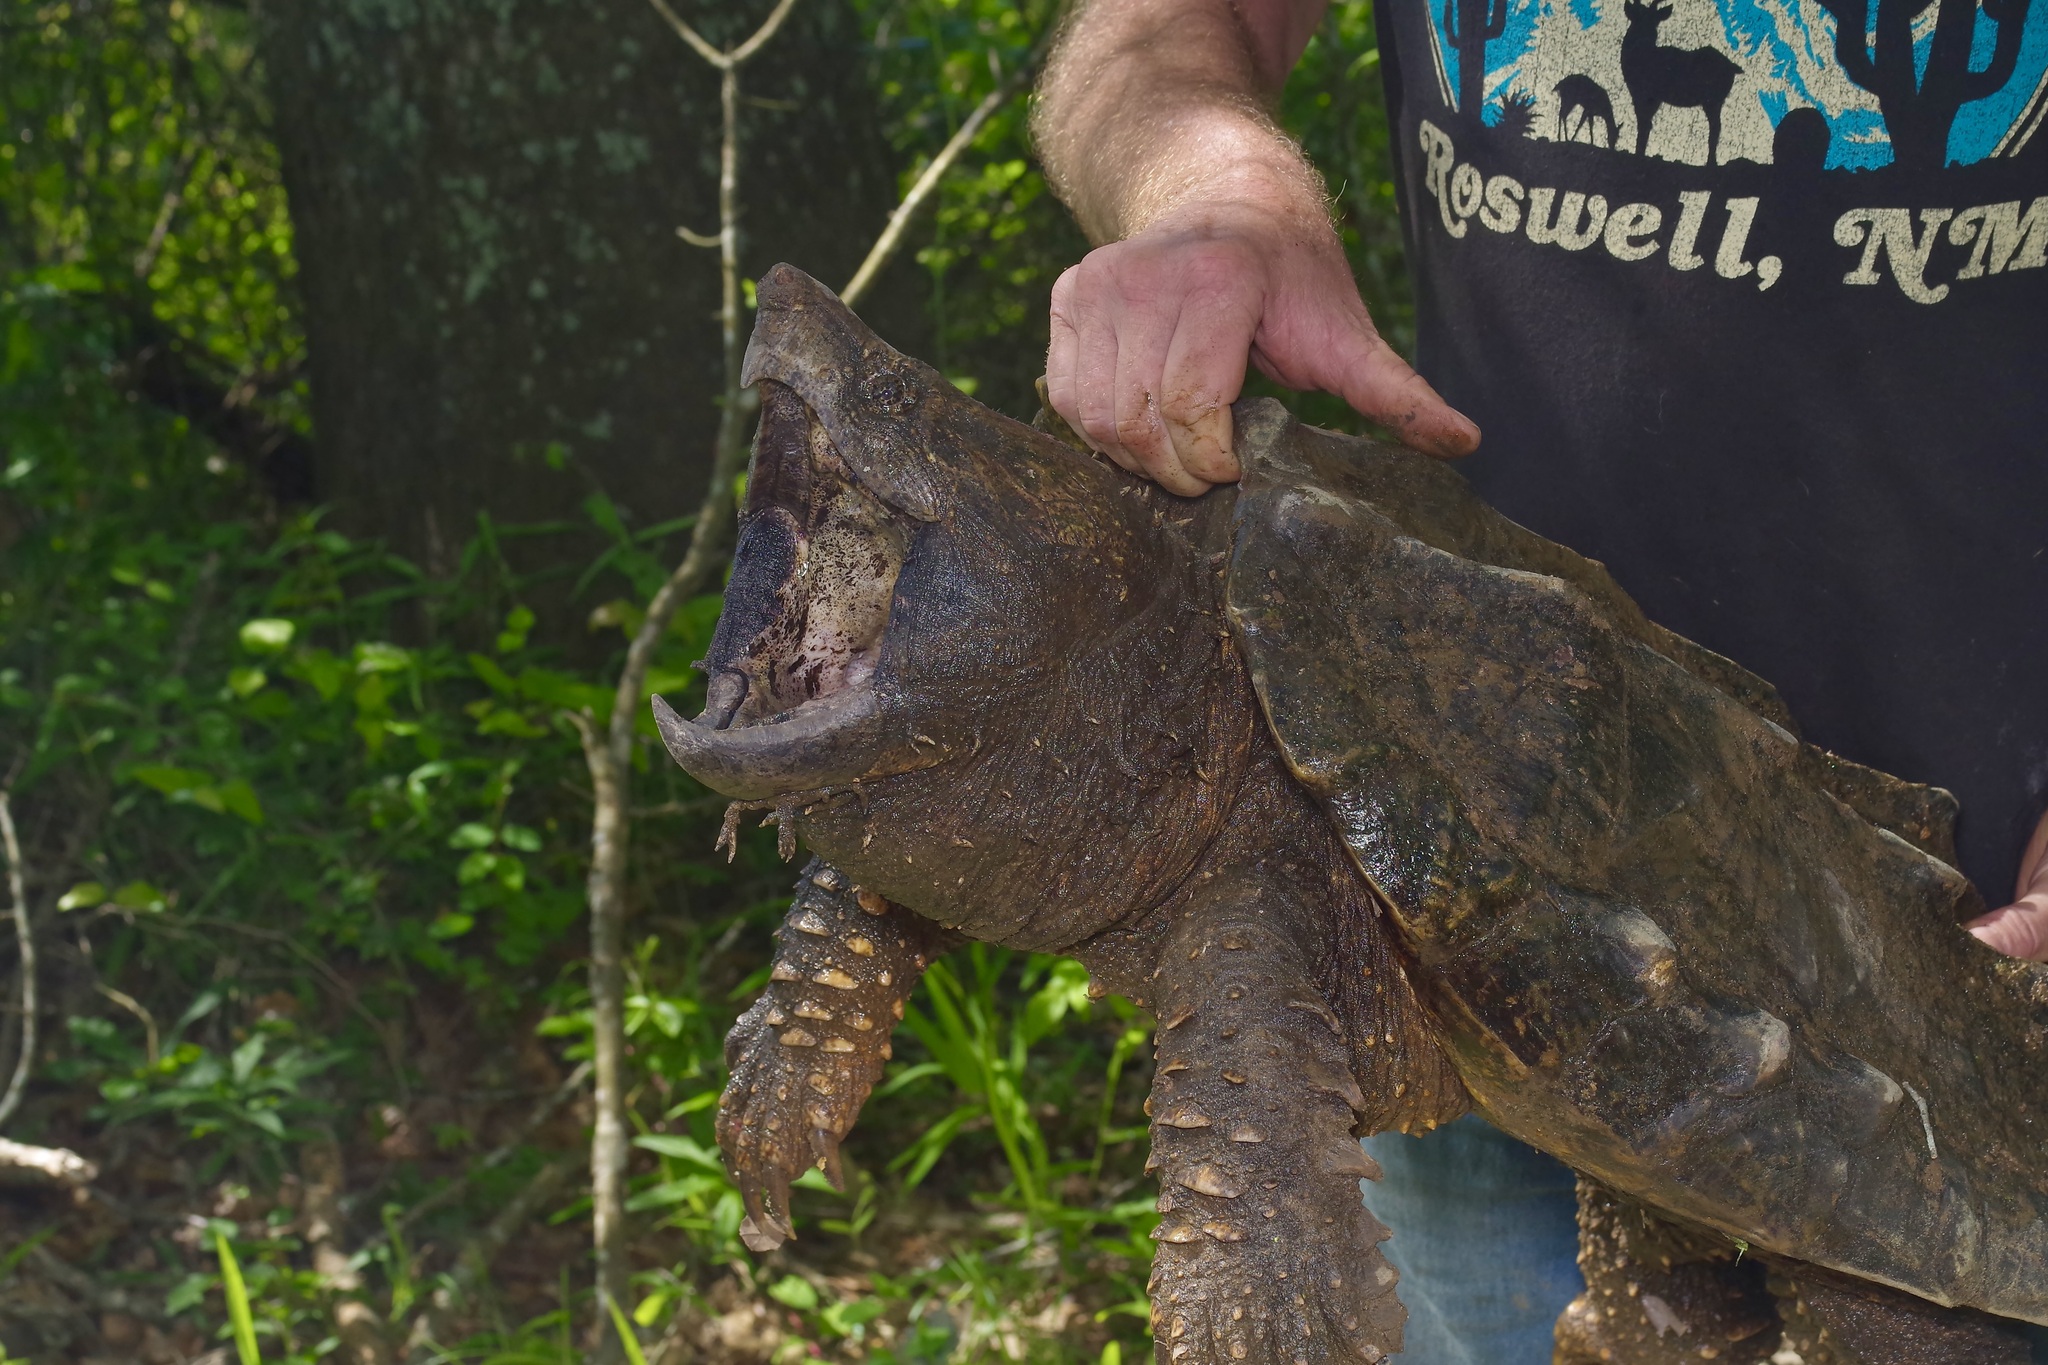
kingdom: Animalia
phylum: Chordata
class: Testudines
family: Chelydridae
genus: Macrochelys
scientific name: Macrochelys temminckii
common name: Alligator snapping turtle
